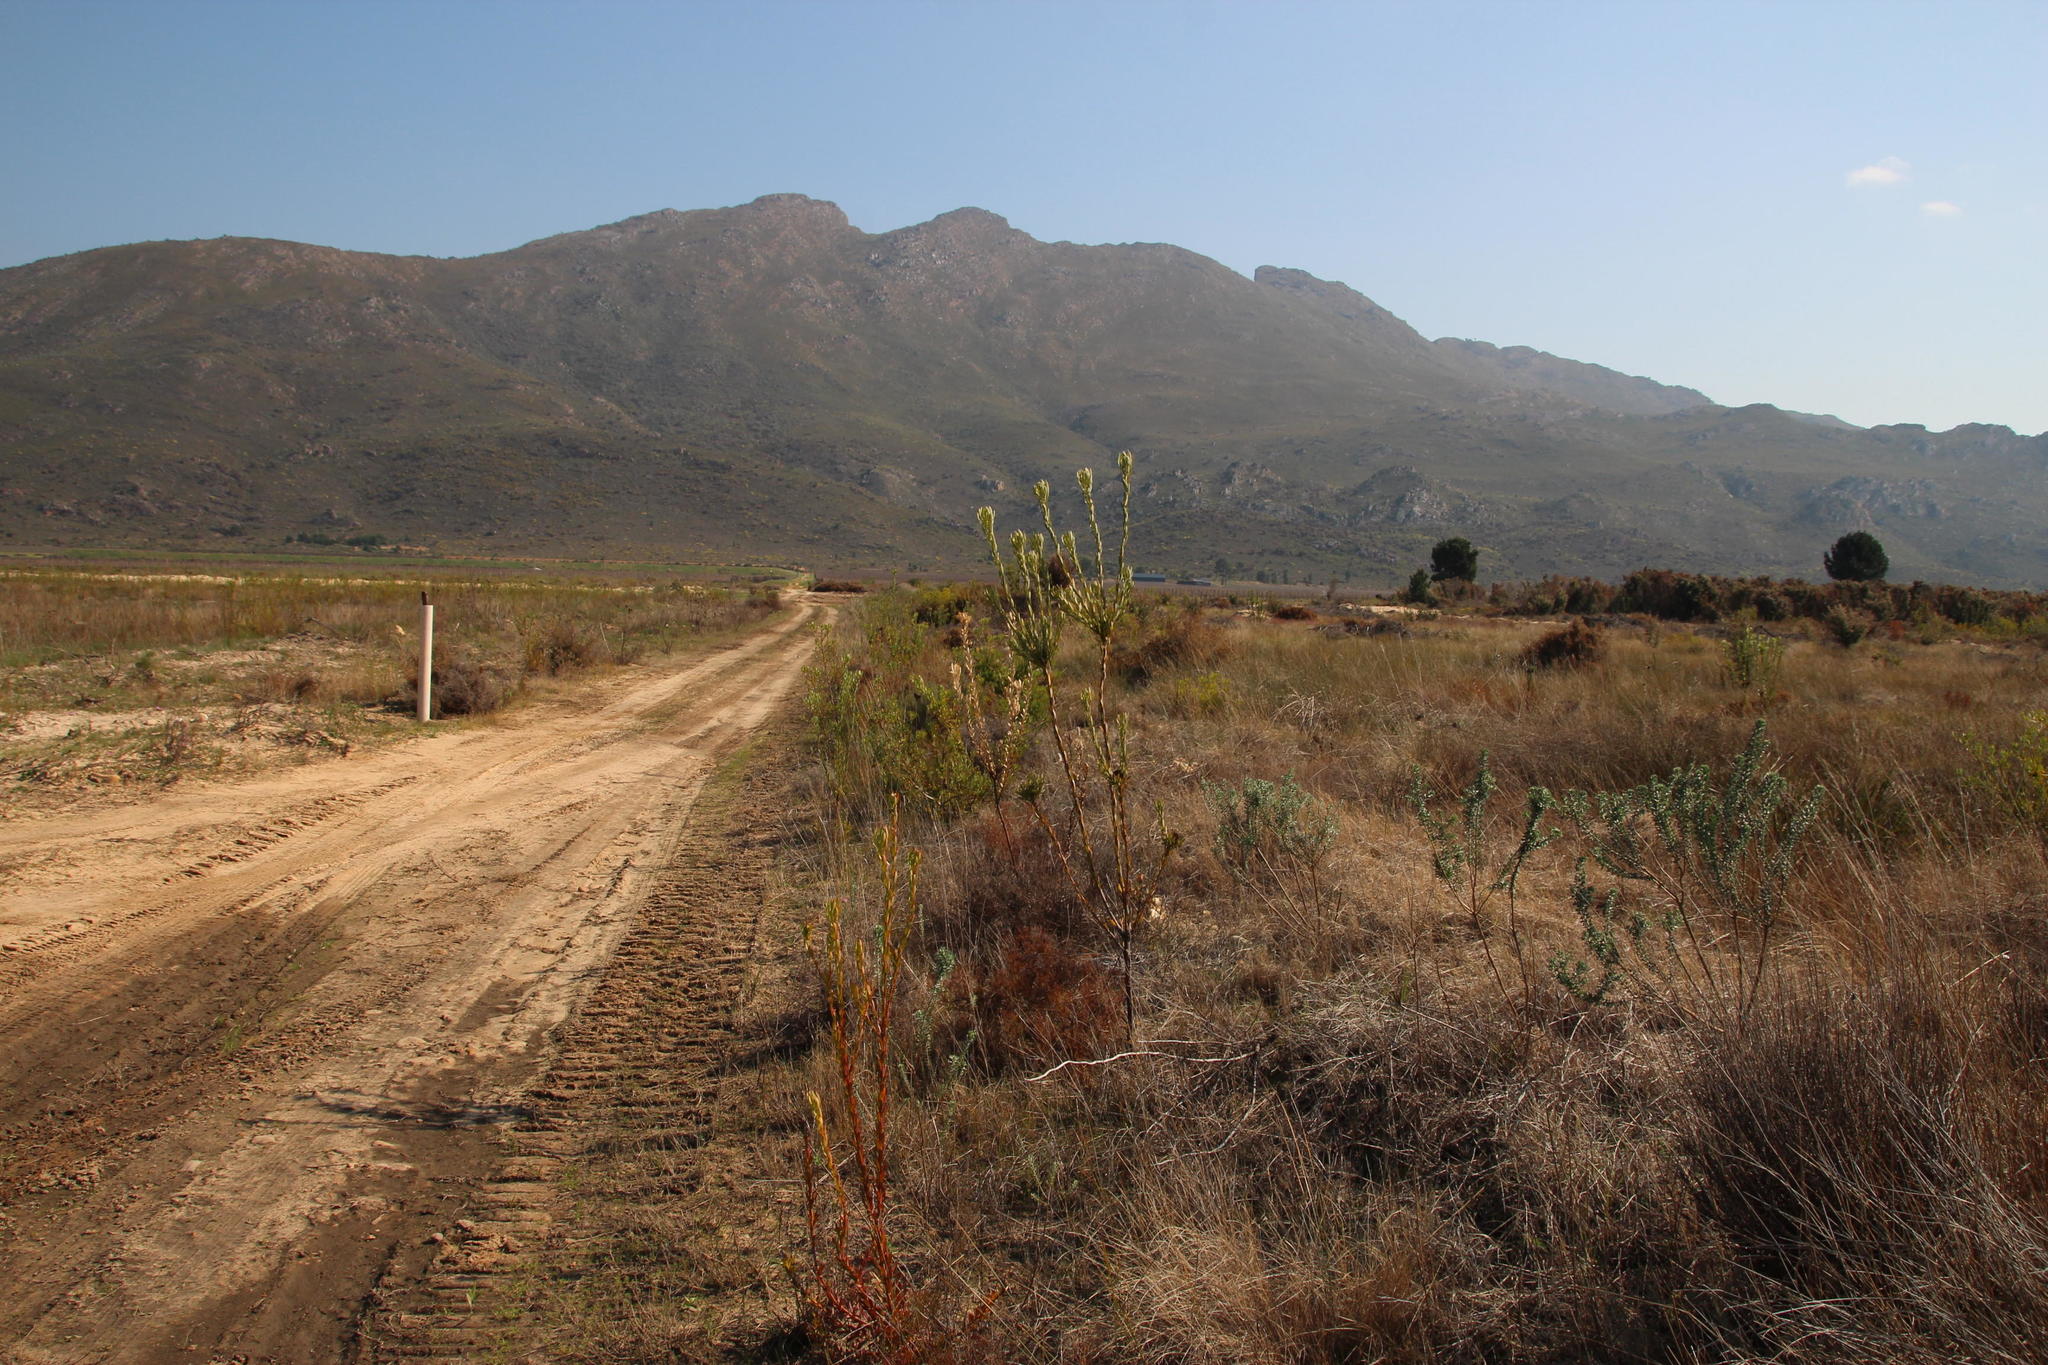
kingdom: Plantae
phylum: Tracheophyta
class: Magnoliopsida
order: Proteales
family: Proteaceae
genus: Leucadendron
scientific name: Leucadendron chamelaea
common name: Witsenberg conebush
